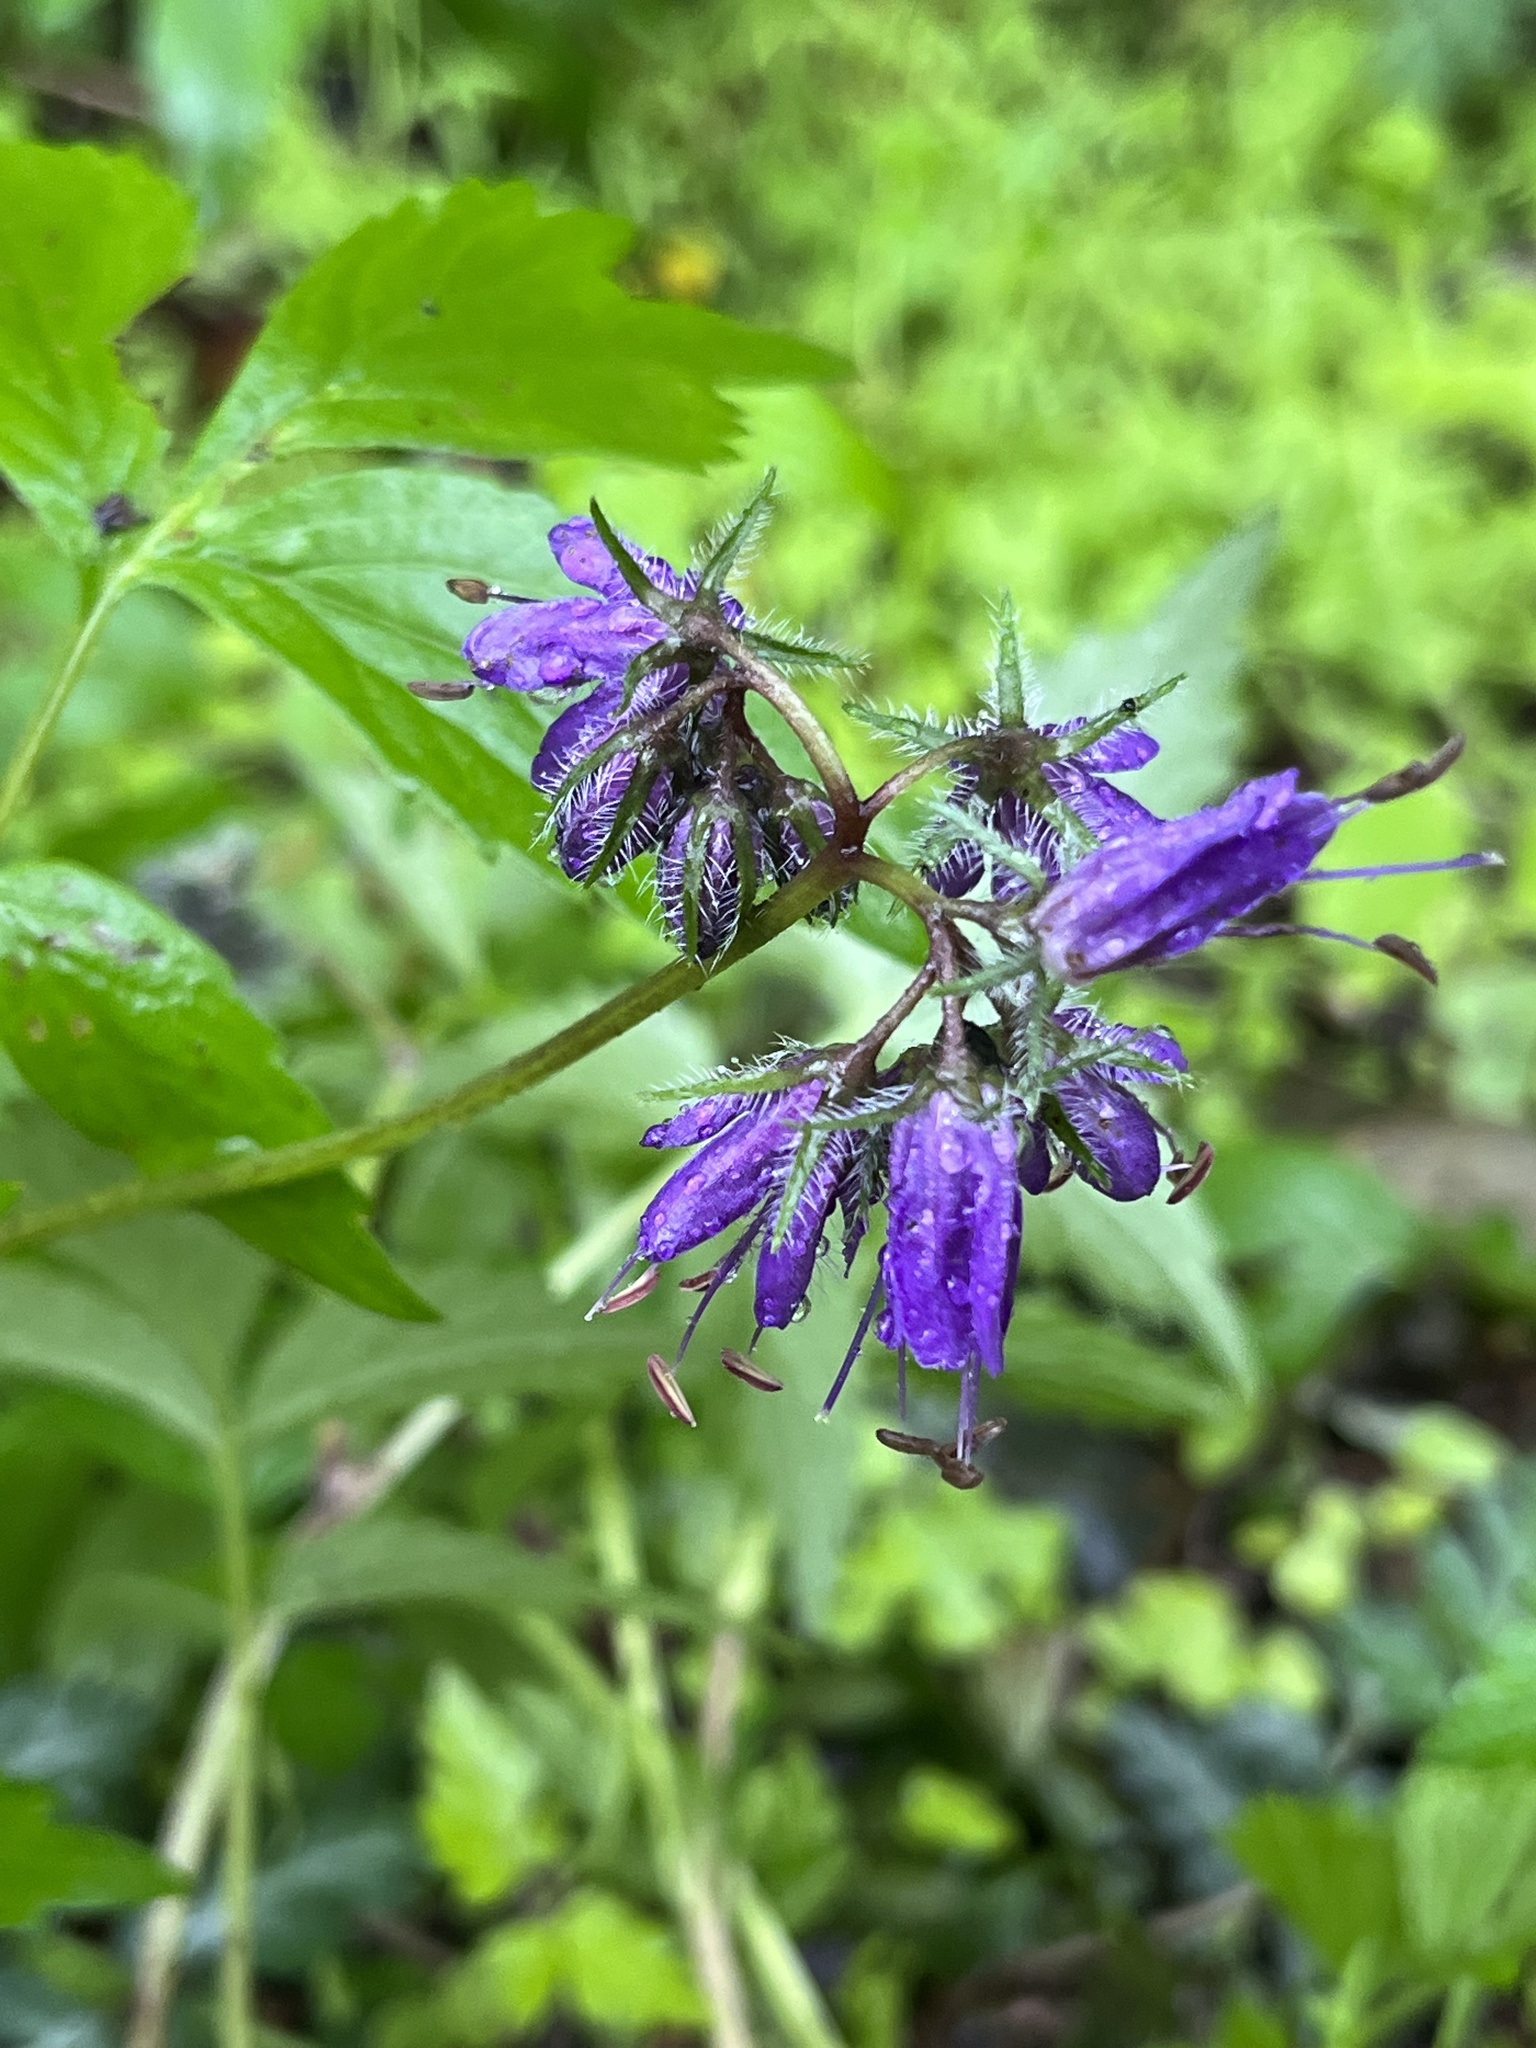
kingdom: Plantae
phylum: Tracheophyta
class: Magnoliopsida
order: Boraginales
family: Hydrophyllaceae
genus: Hydrophyllum
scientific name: Hydrophyllum virginianum
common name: Virginia waterleaf
